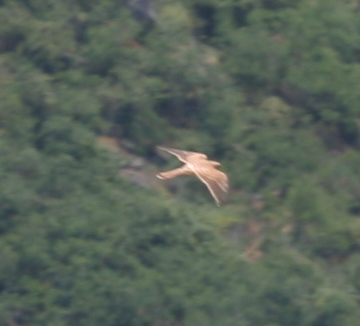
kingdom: Animalia
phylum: Chordata
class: Aves
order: Falconiformes
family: Falconidae
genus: Falco
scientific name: Falco tinnunculus
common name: Common kestrel
